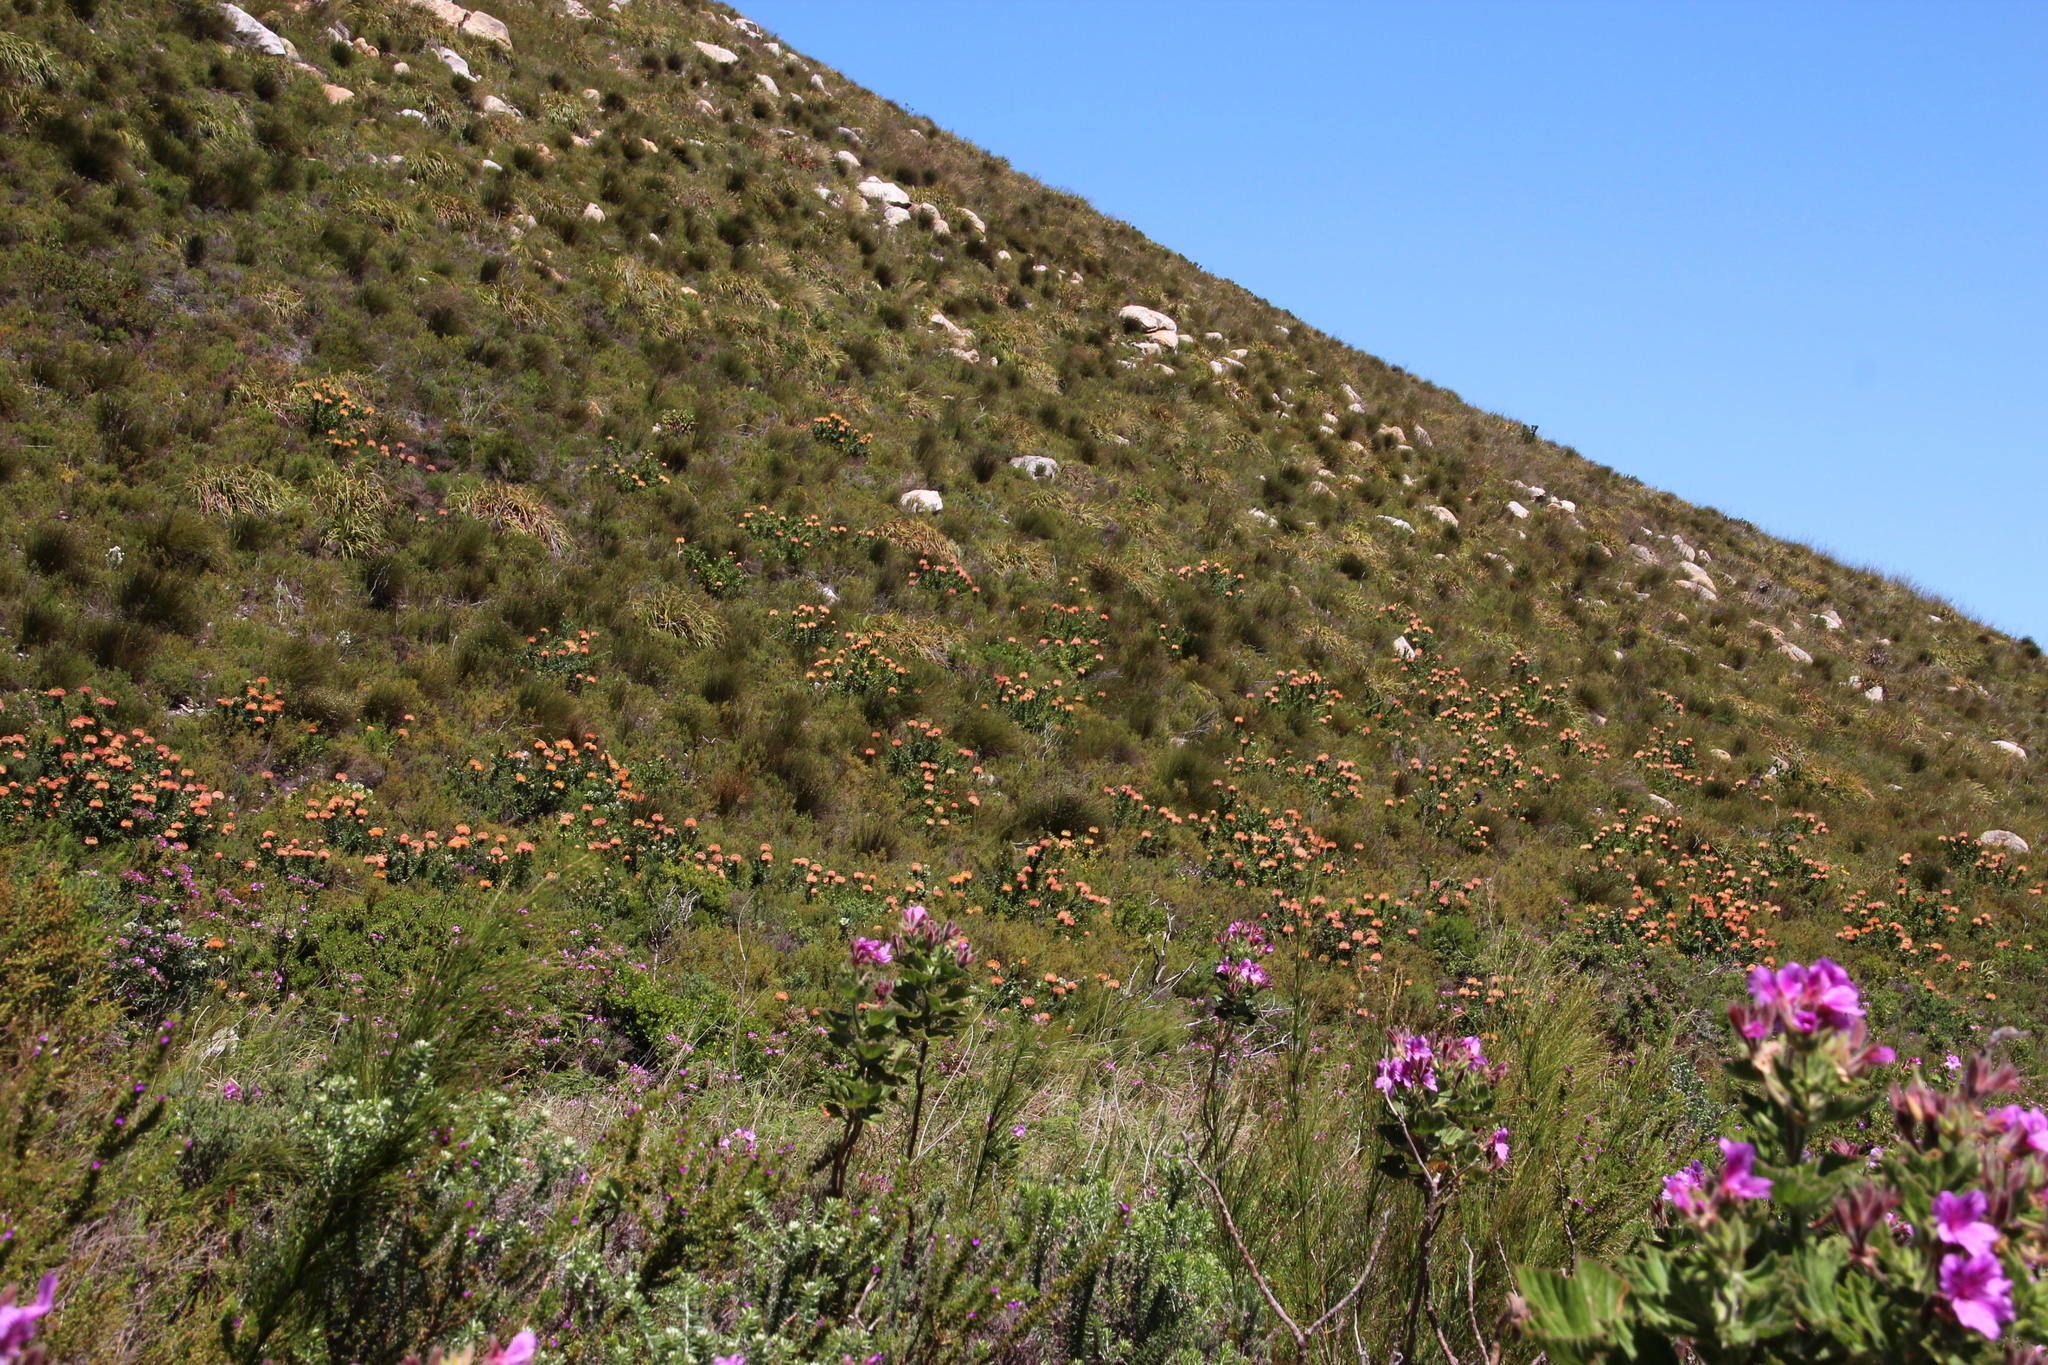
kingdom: Plantae
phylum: Tracheophyta
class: Magnoliopsida
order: Proteales
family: Proteaceae
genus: Leucospermum
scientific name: Leucospermum cordifolium
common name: Red pincushion-protea
